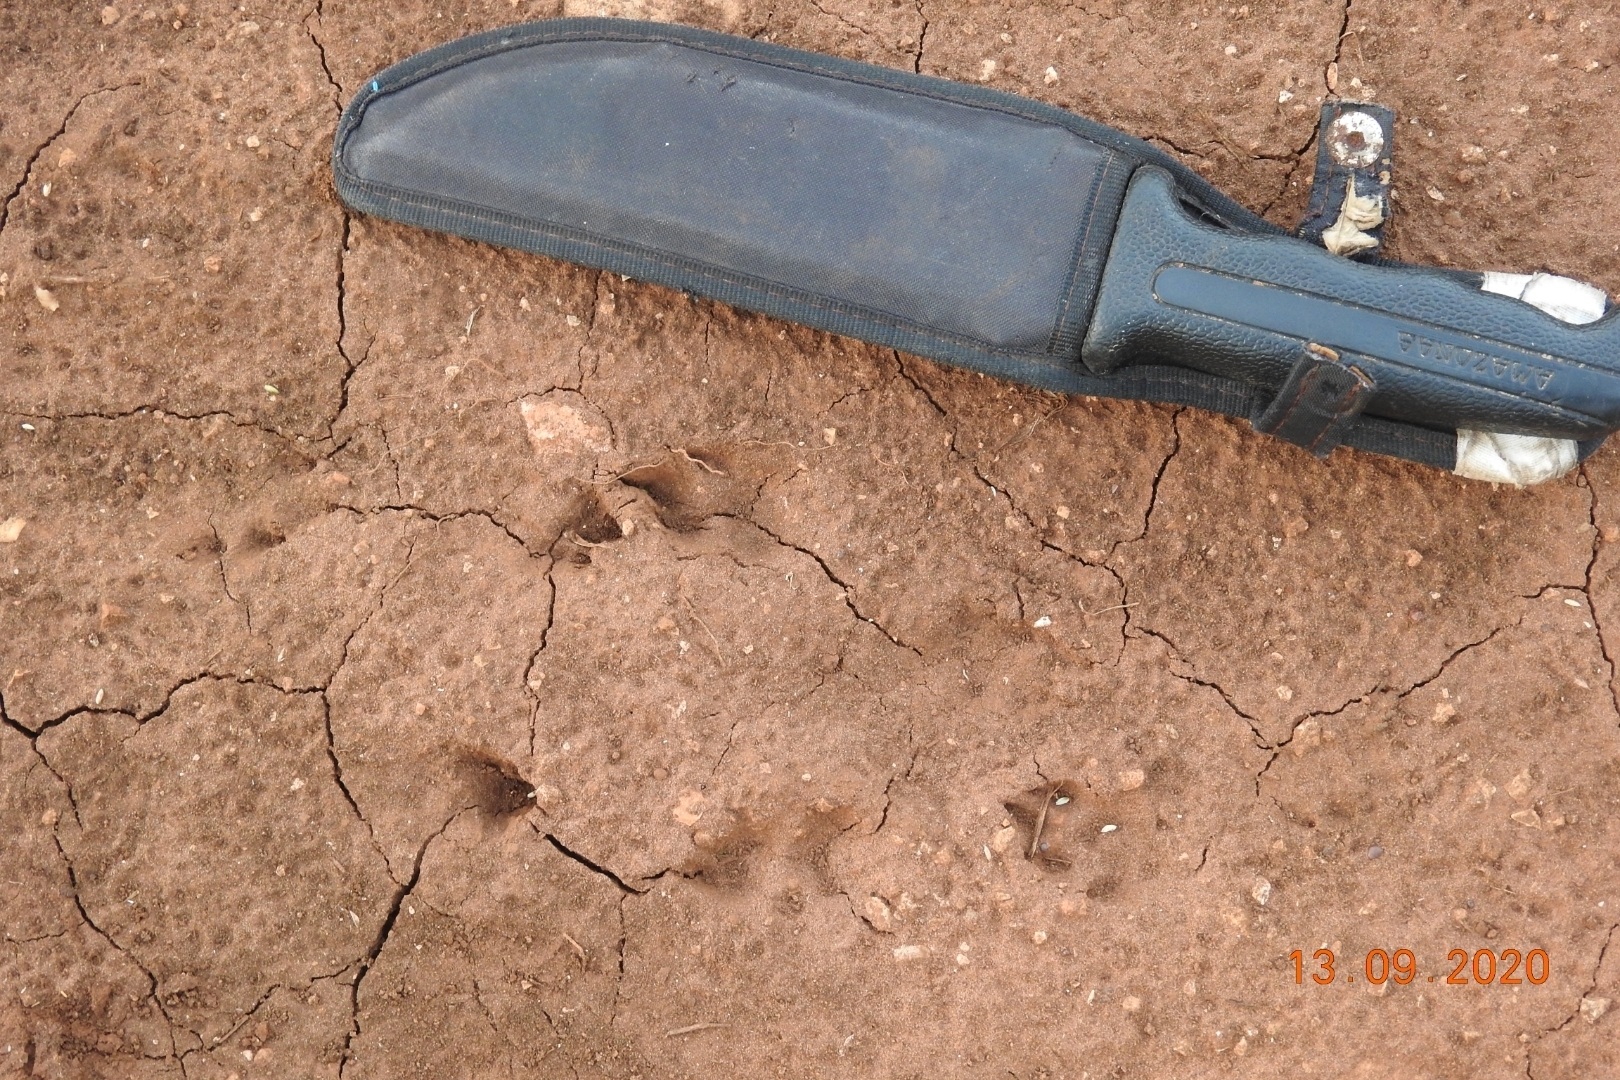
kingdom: Animalia
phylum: Chordata
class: Mammalia
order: Lagomorpha
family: Leporidae
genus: Sylvilagus
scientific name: Sylvilagus floridanus
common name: Eastern cottontail
